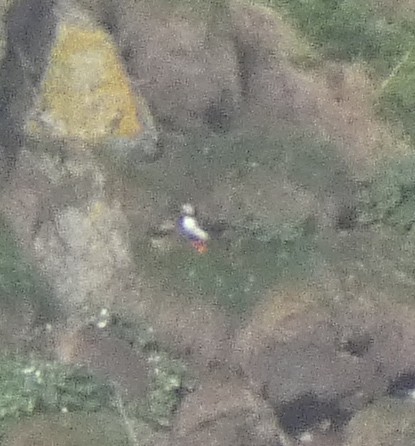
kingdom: Animalia
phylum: Chordata
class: Aves
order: Charadriiformes
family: Alcidae
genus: Fratercula
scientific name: Fratercula arctica
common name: Atlantic puffin
